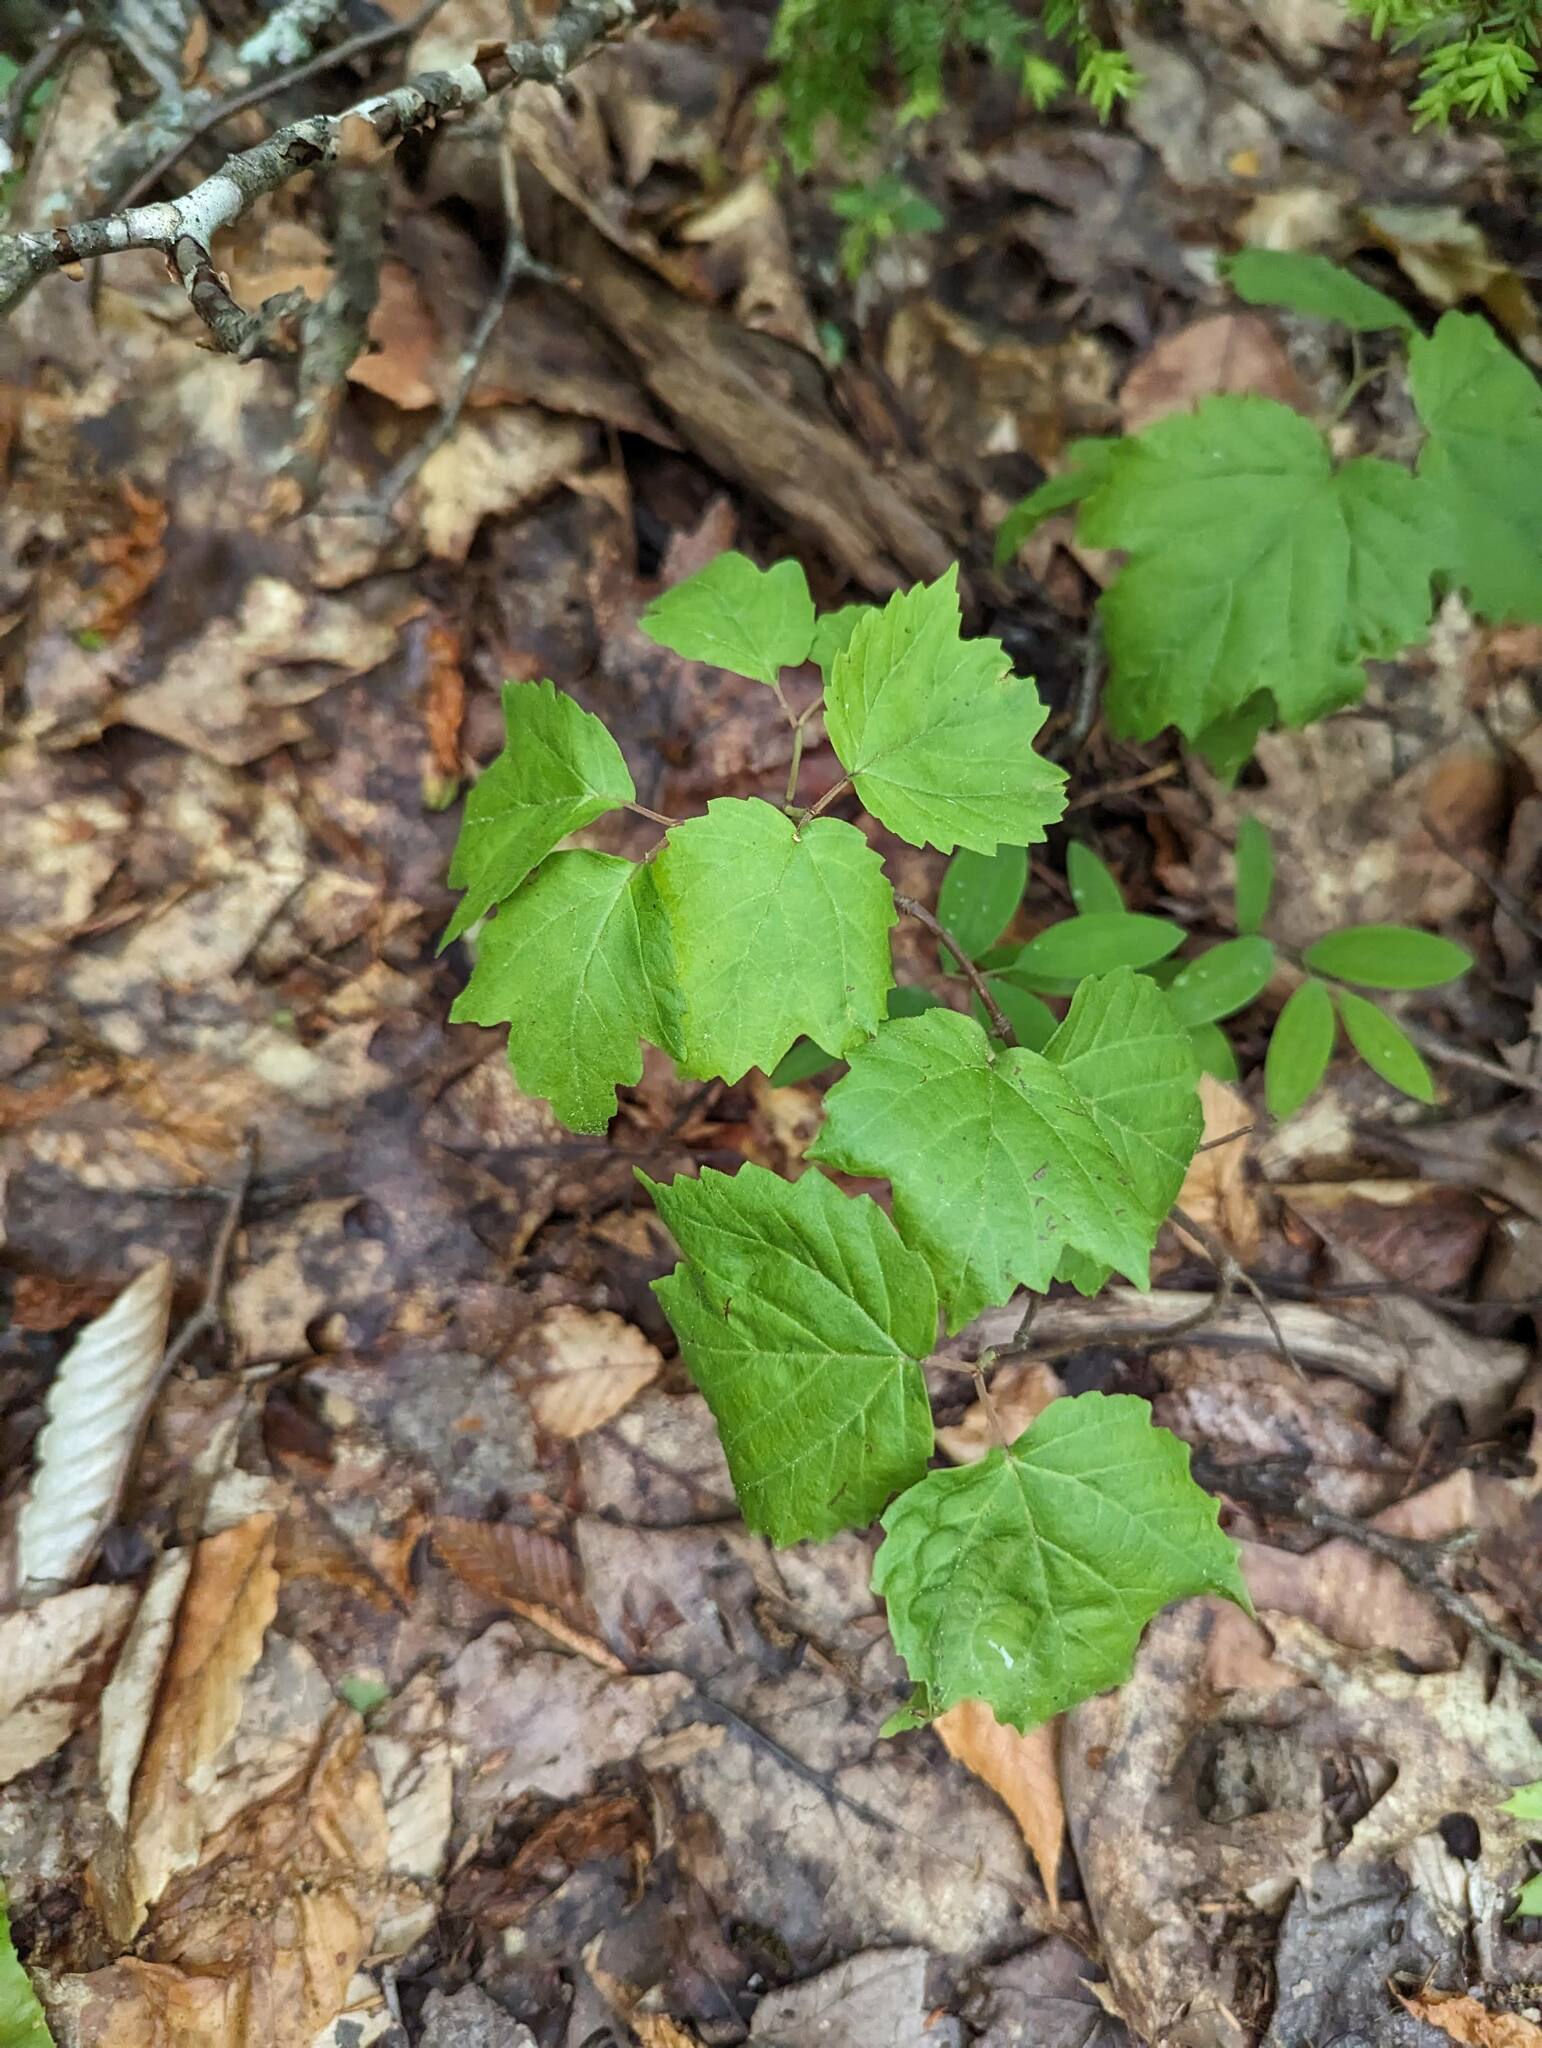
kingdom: Plantae
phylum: Tracheophyta
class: Magnoliopsida
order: Dipsacales
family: Viburnaceae
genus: Viburnum
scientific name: Viburnum acerifolium
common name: Dockmackie
